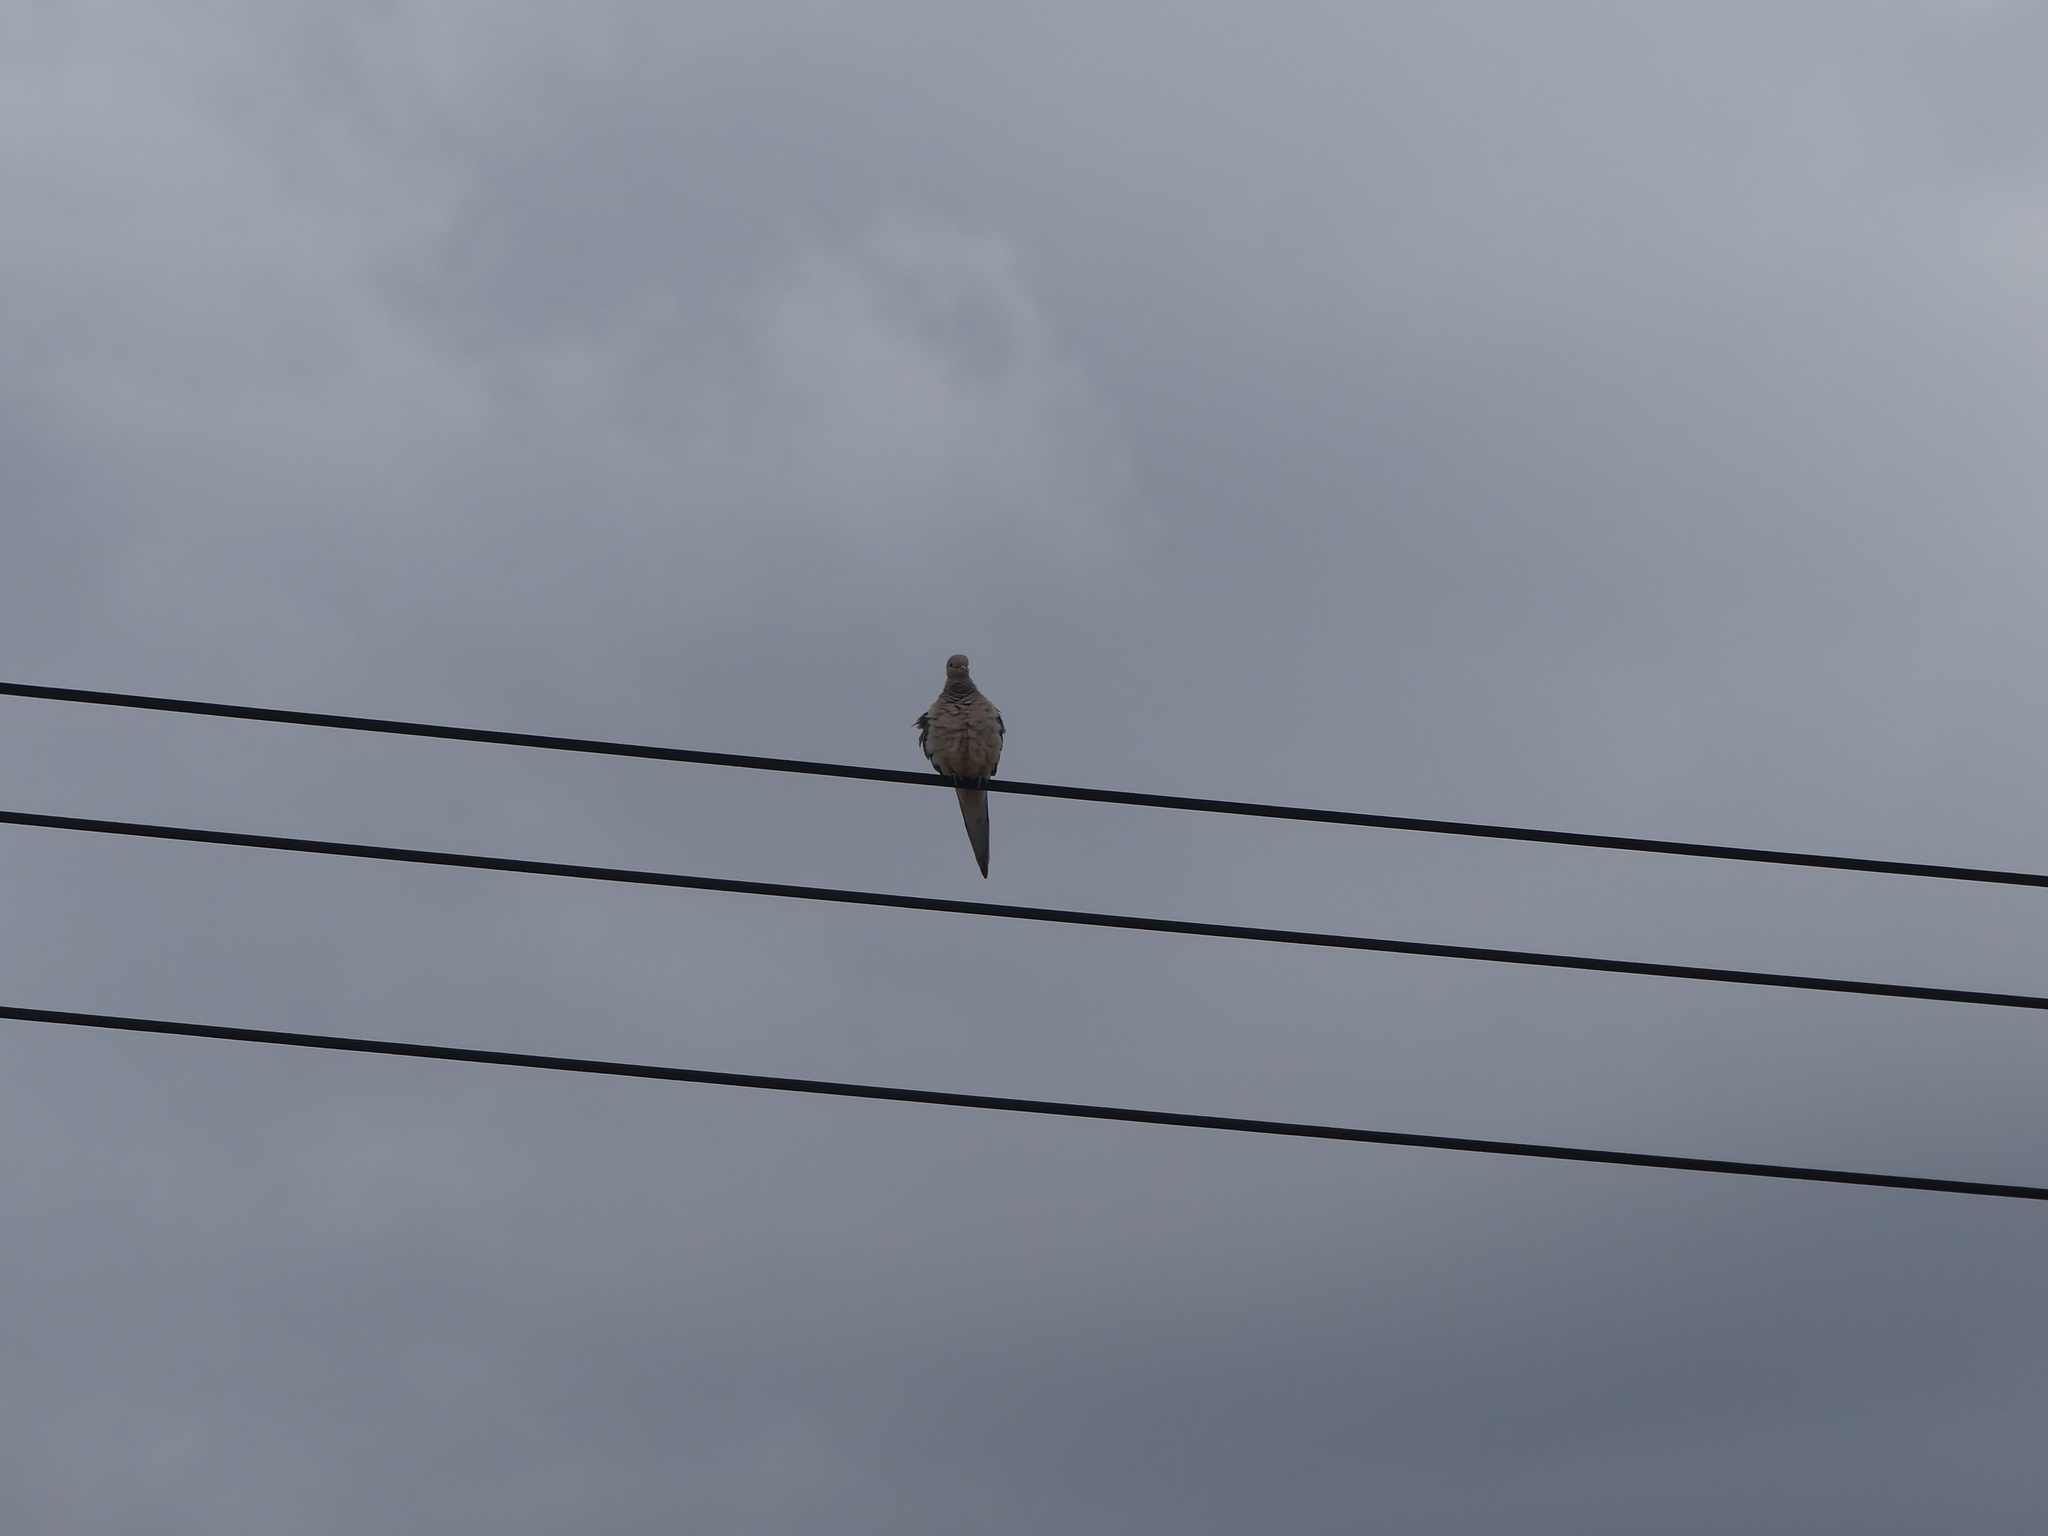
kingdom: Animalia
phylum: Chordata
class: Aves
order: Columbiformes
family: Columbidae
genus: Zenaida
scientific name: Zenaida macroura
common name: Mourning dove
